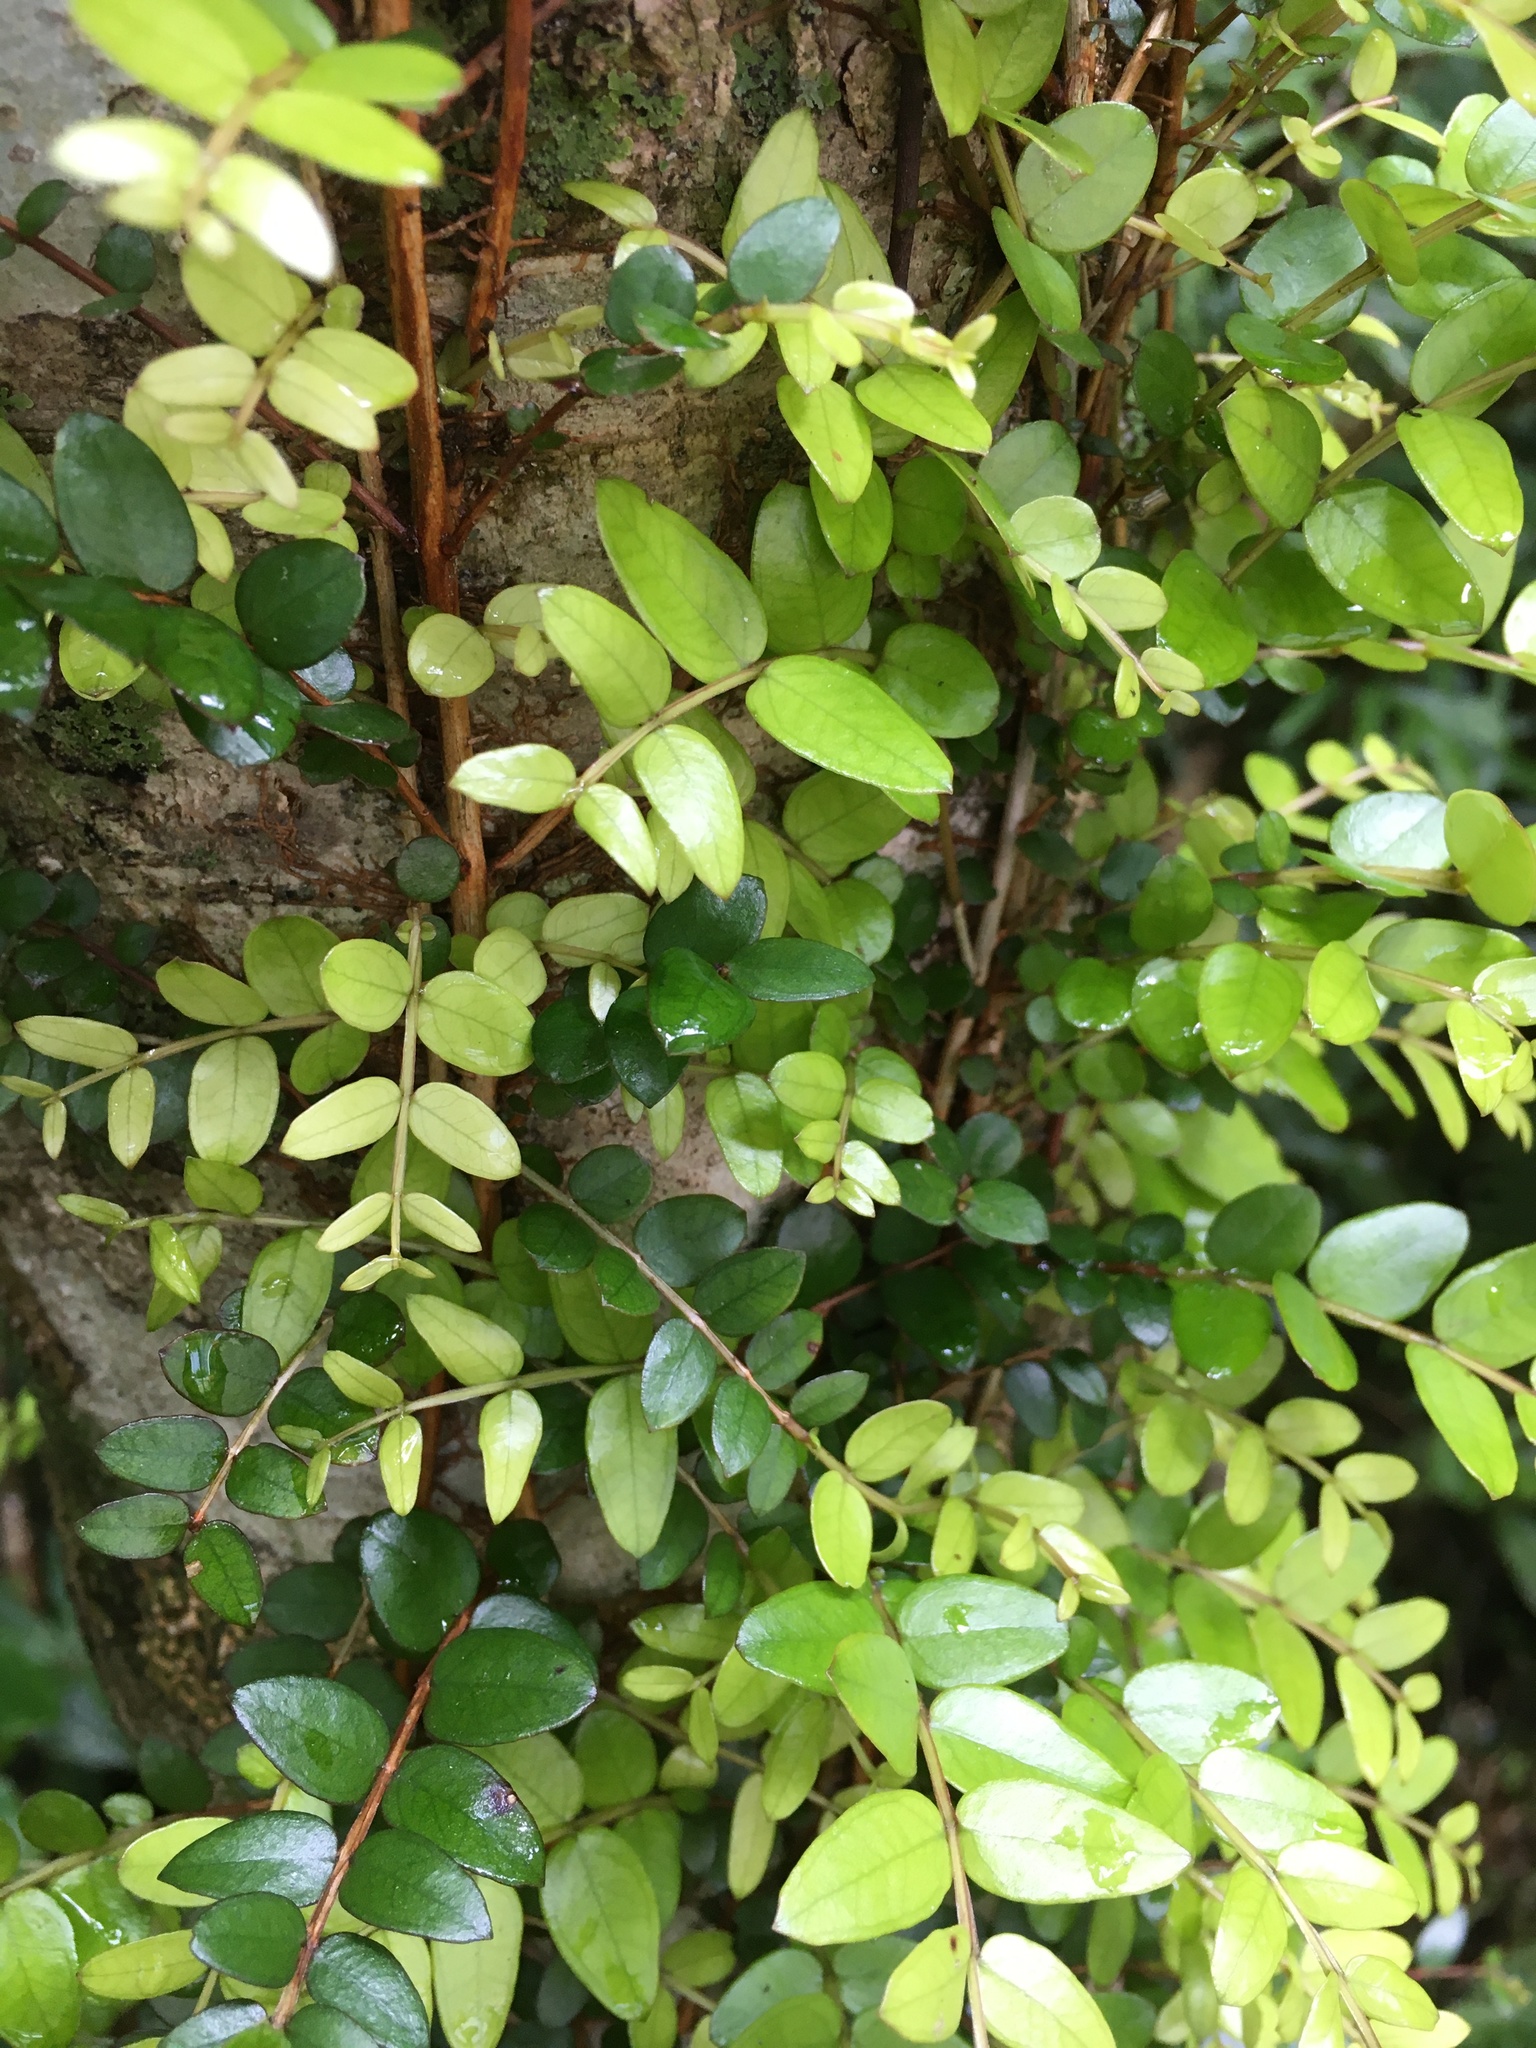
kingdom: Plantae
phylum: Tracheophyta
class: Magnoliopsida
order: Myrtales
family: Myrtaceae
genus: Metrosideros
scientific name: Metrosideros diffusa
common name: Small ratavine
